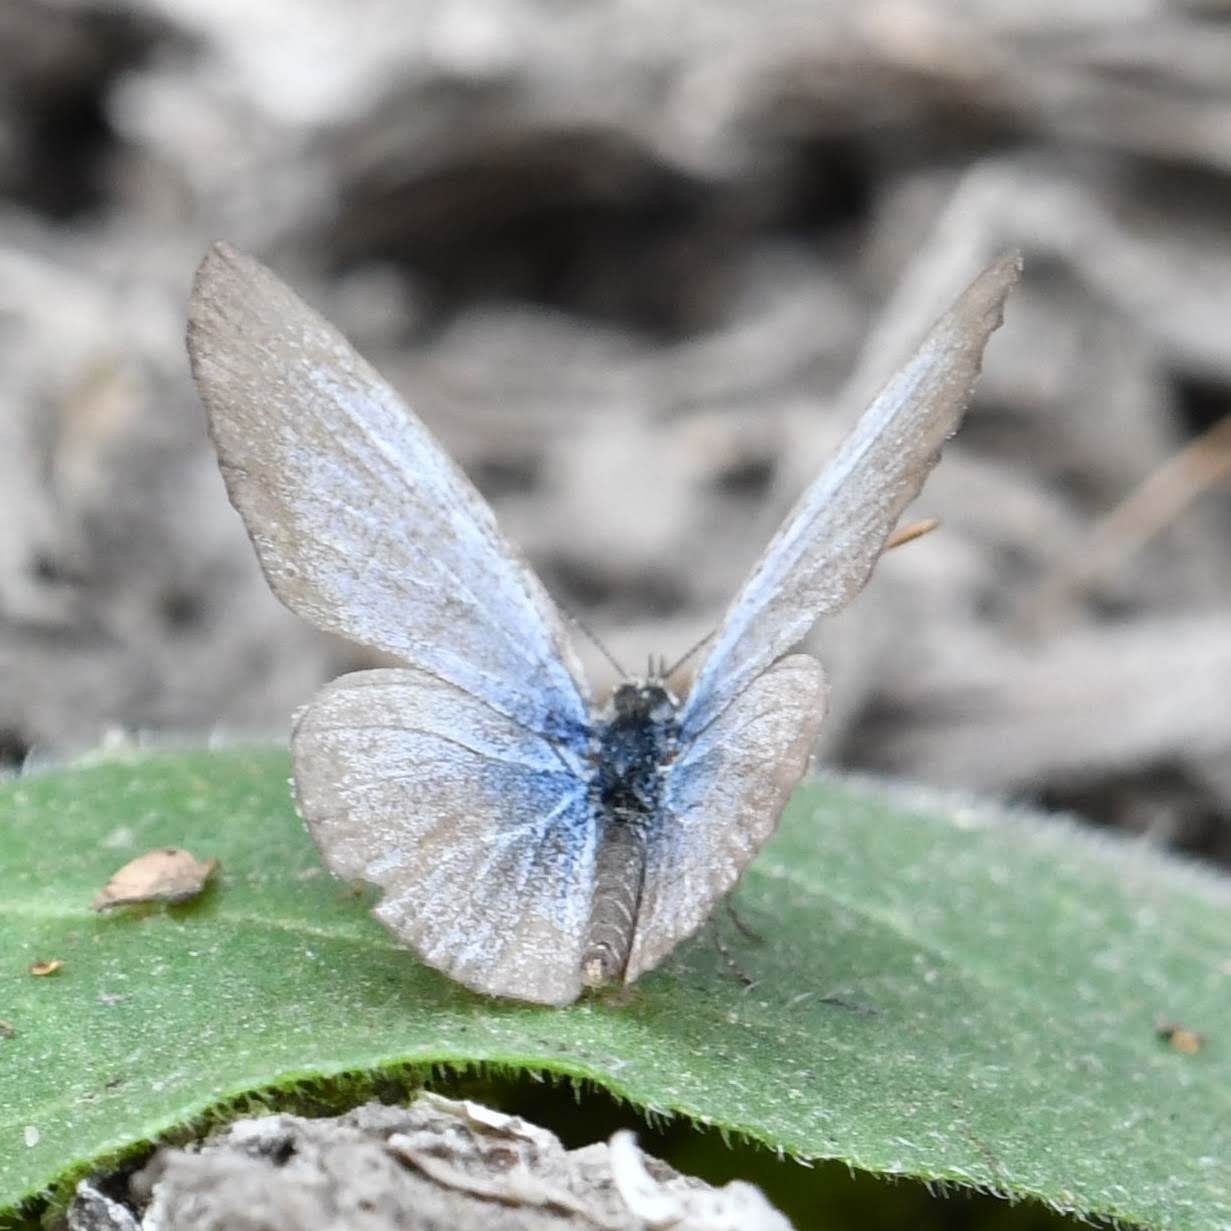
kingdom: Animalia
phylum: Arthropoda
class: Insecta
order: Lepidoptera
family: Lycaenidae
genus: Pseudozizeeria
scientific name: Pseudozizeeria maha
